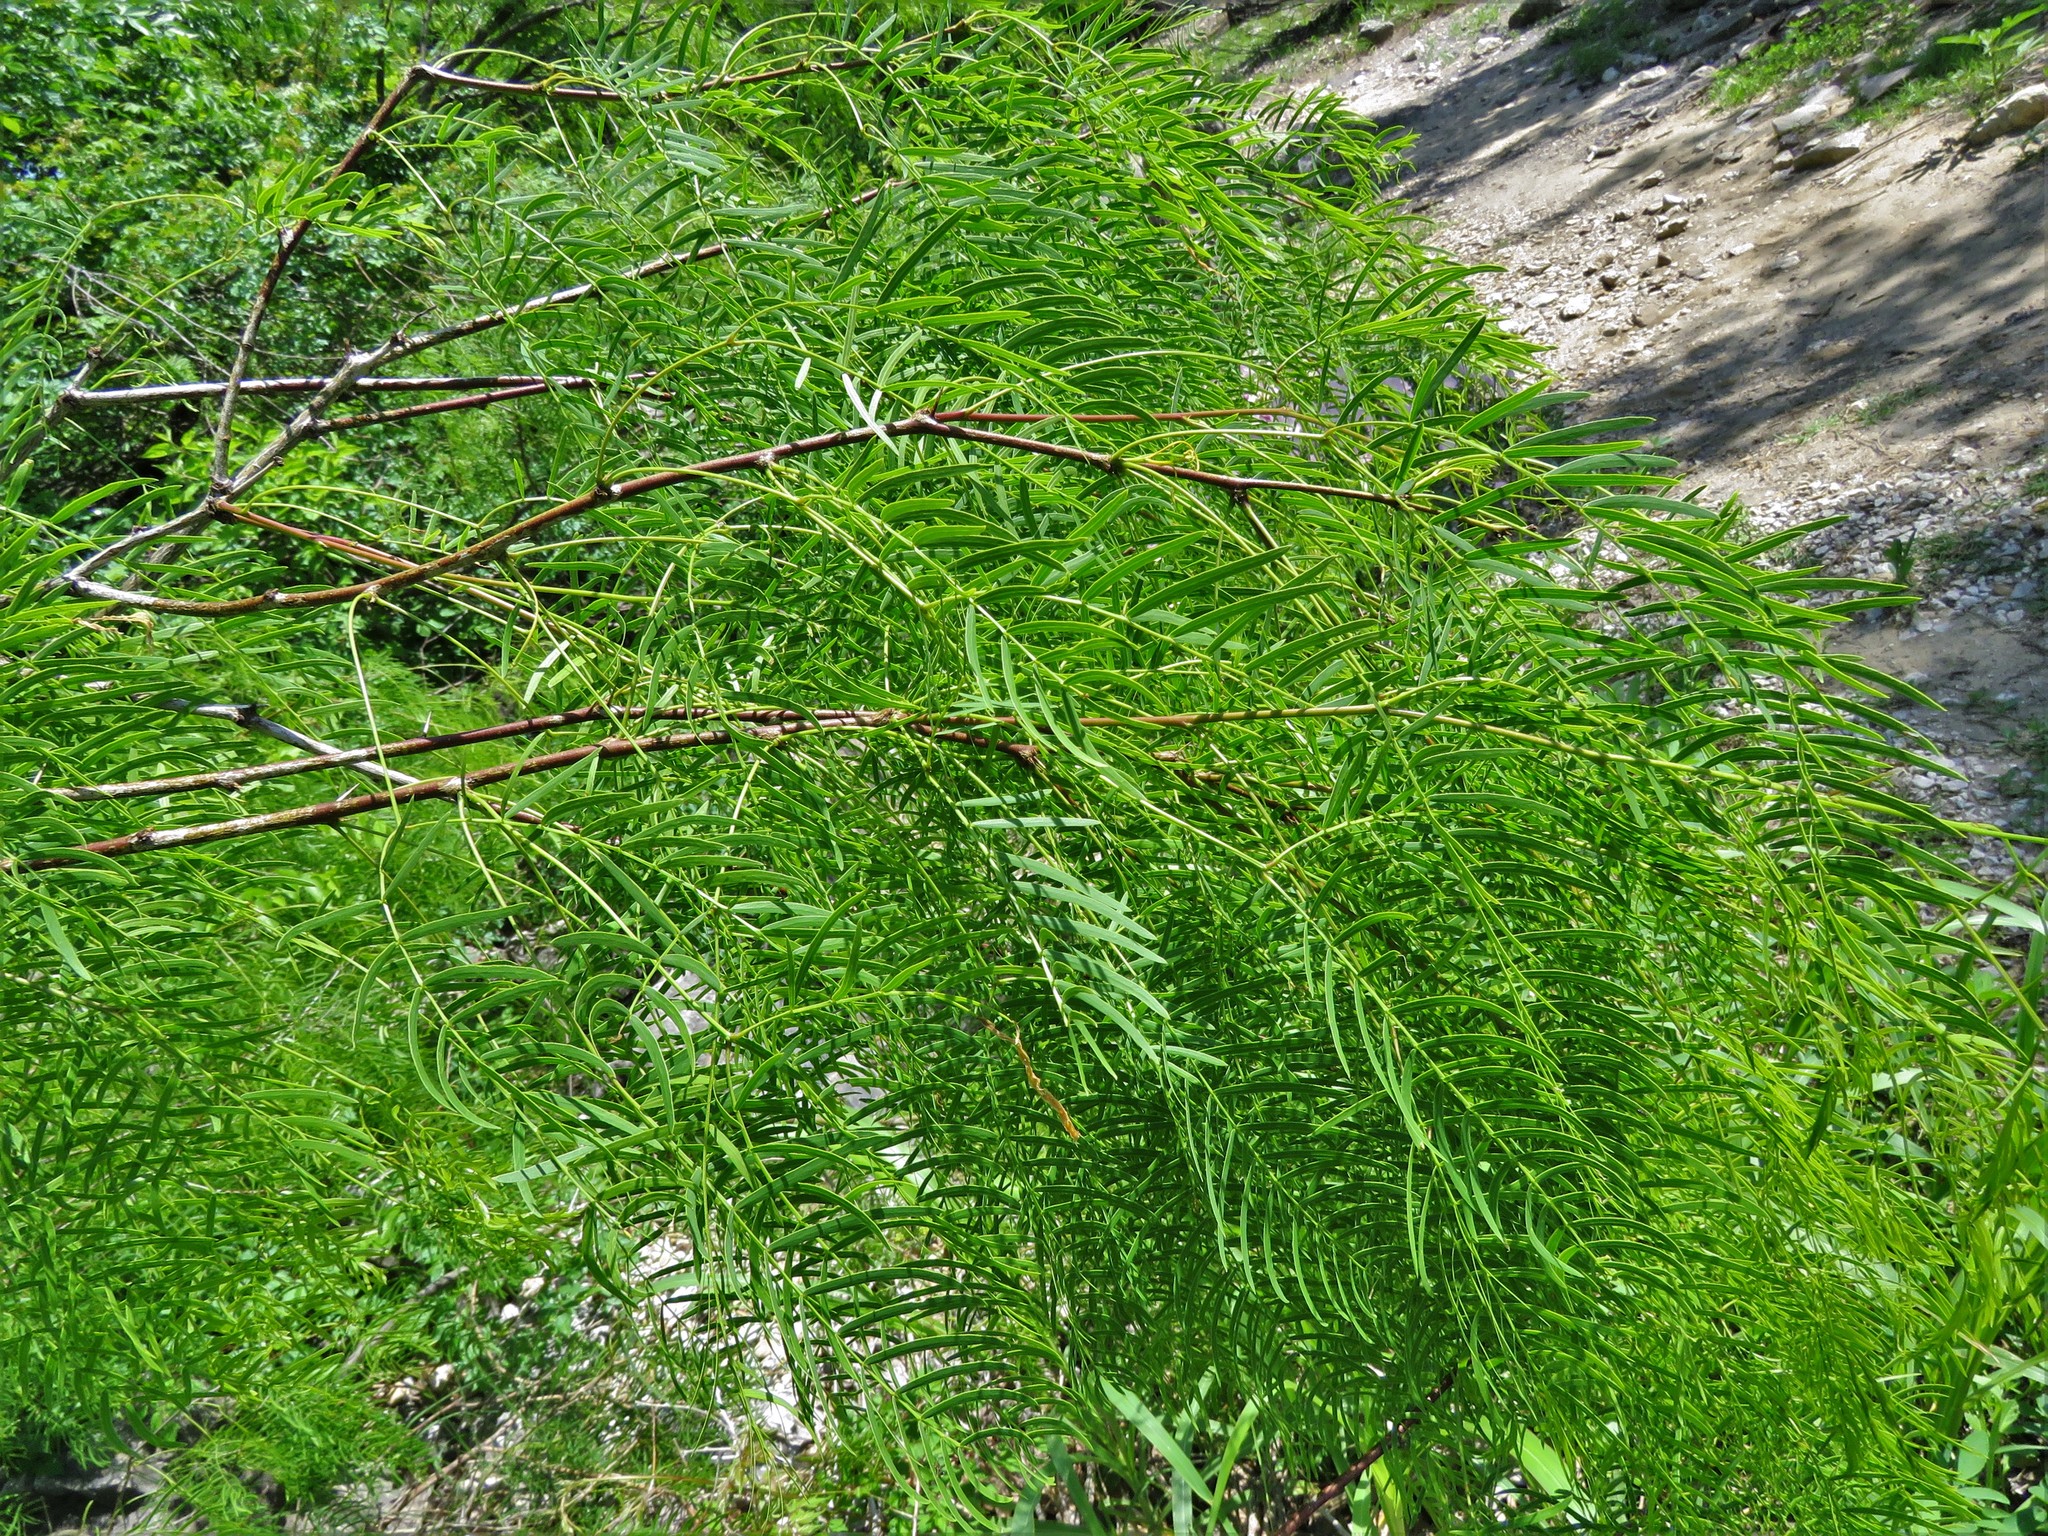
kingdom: Plantae
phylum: Tracheophyta
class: Magnoliopsida
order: Fabales
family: Fabaceae
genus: Prosopis
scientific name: Prosopis glandulosa
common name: Honey mesquite
